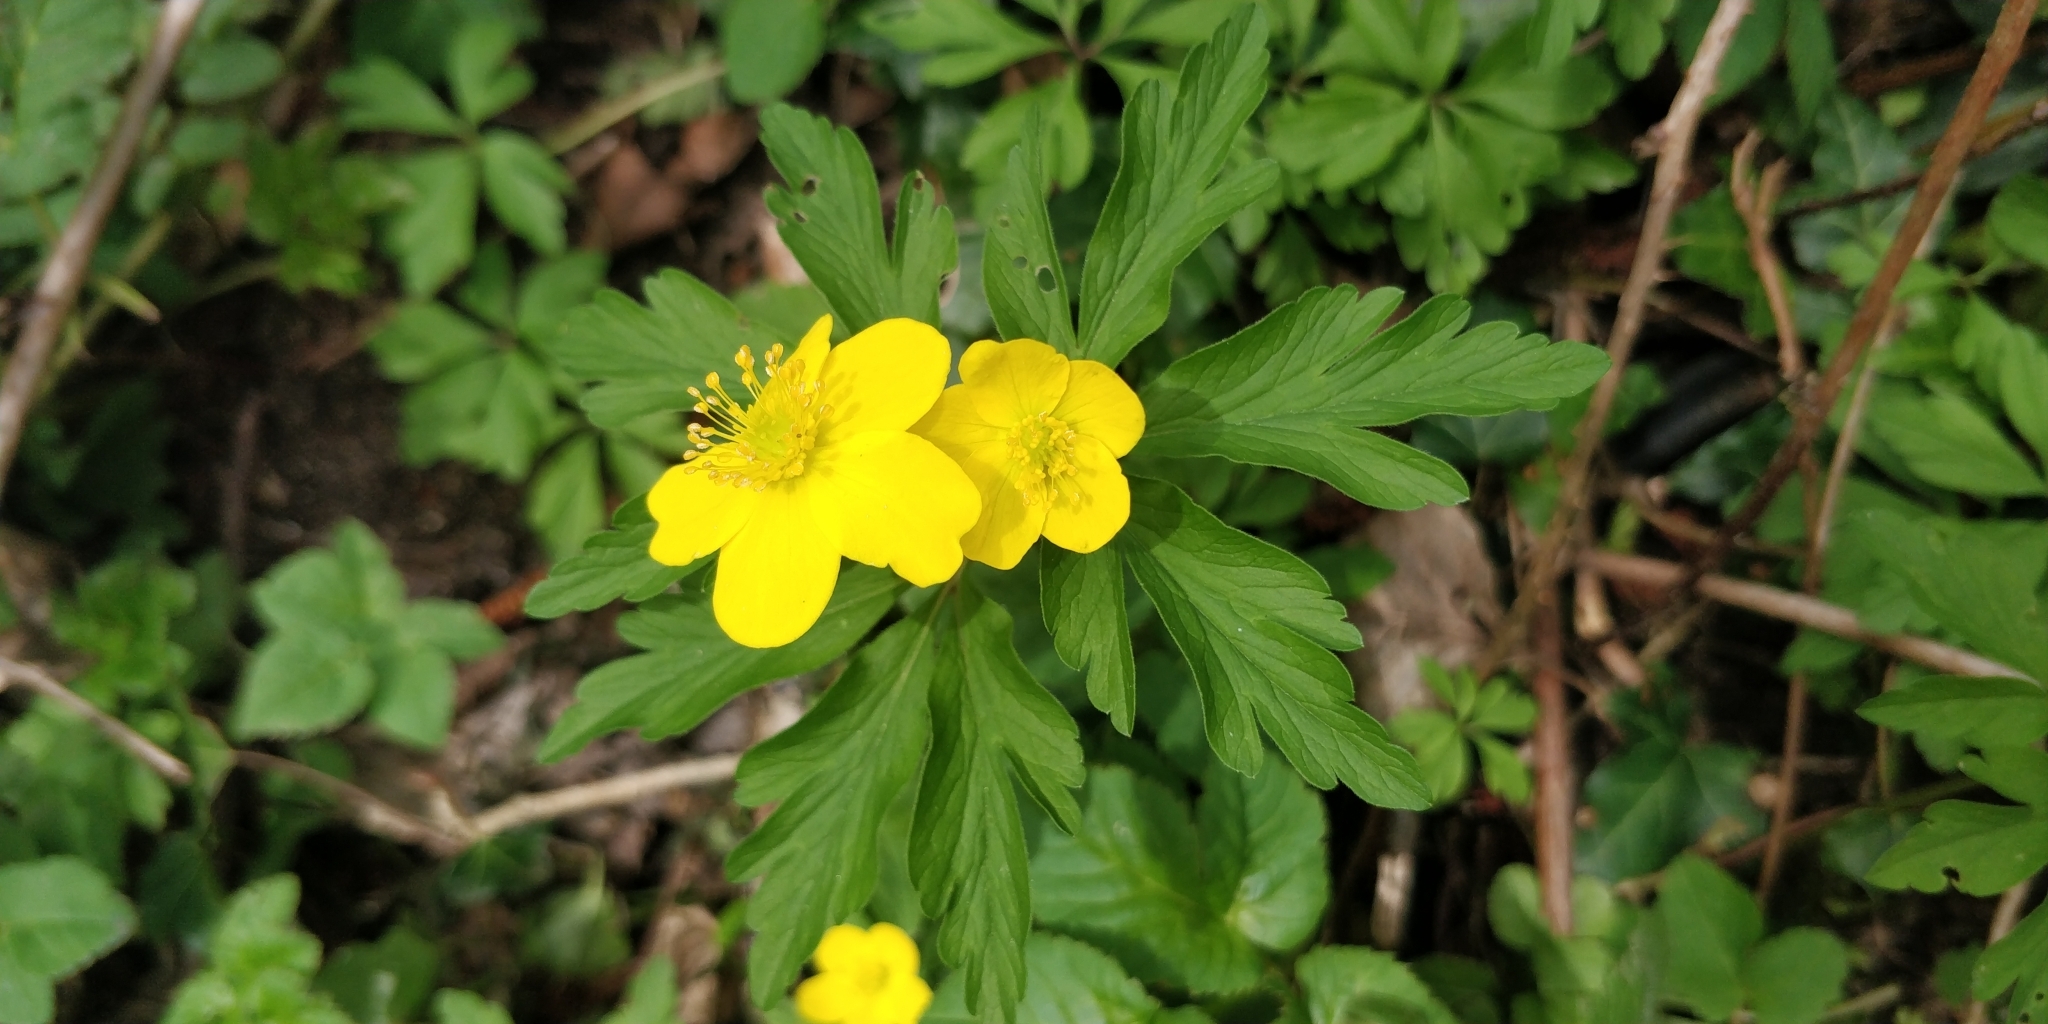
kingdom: Plantae
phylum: Tracheophyta
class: Magnoliopsida
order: Ranunculales
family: Ranunculaceae
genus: Anemone
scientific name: Anemone ranunculoides
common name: Yellow anemone
